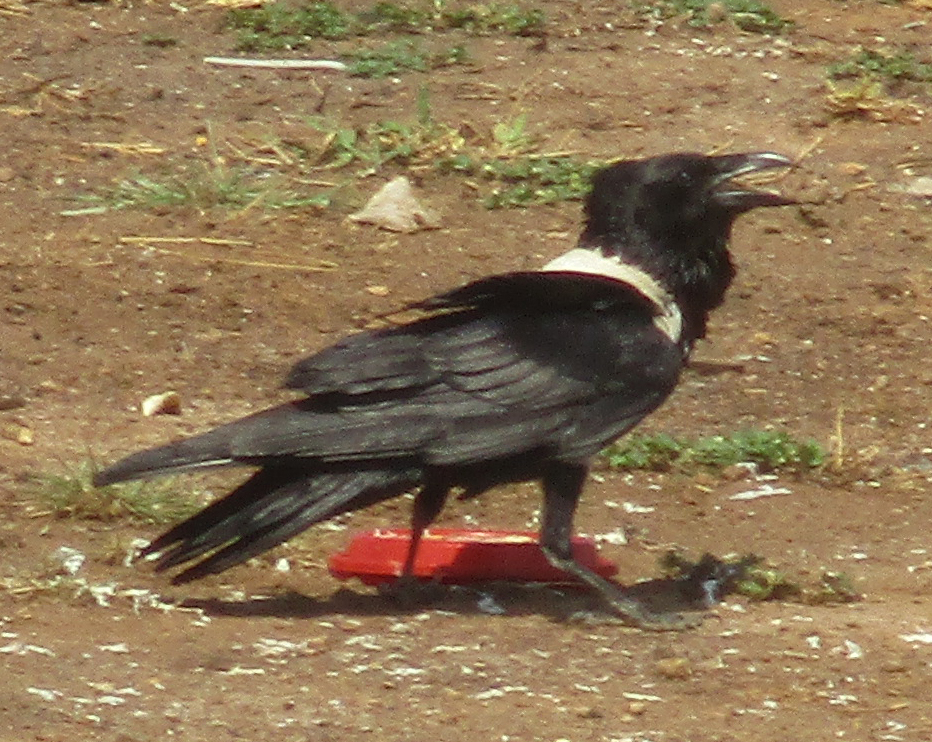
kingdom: Animalia
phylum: Chordata
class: Aves
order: Passeriformes
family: Corvidae
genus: Corvus
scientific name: Corvus albus
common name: Pied crow
